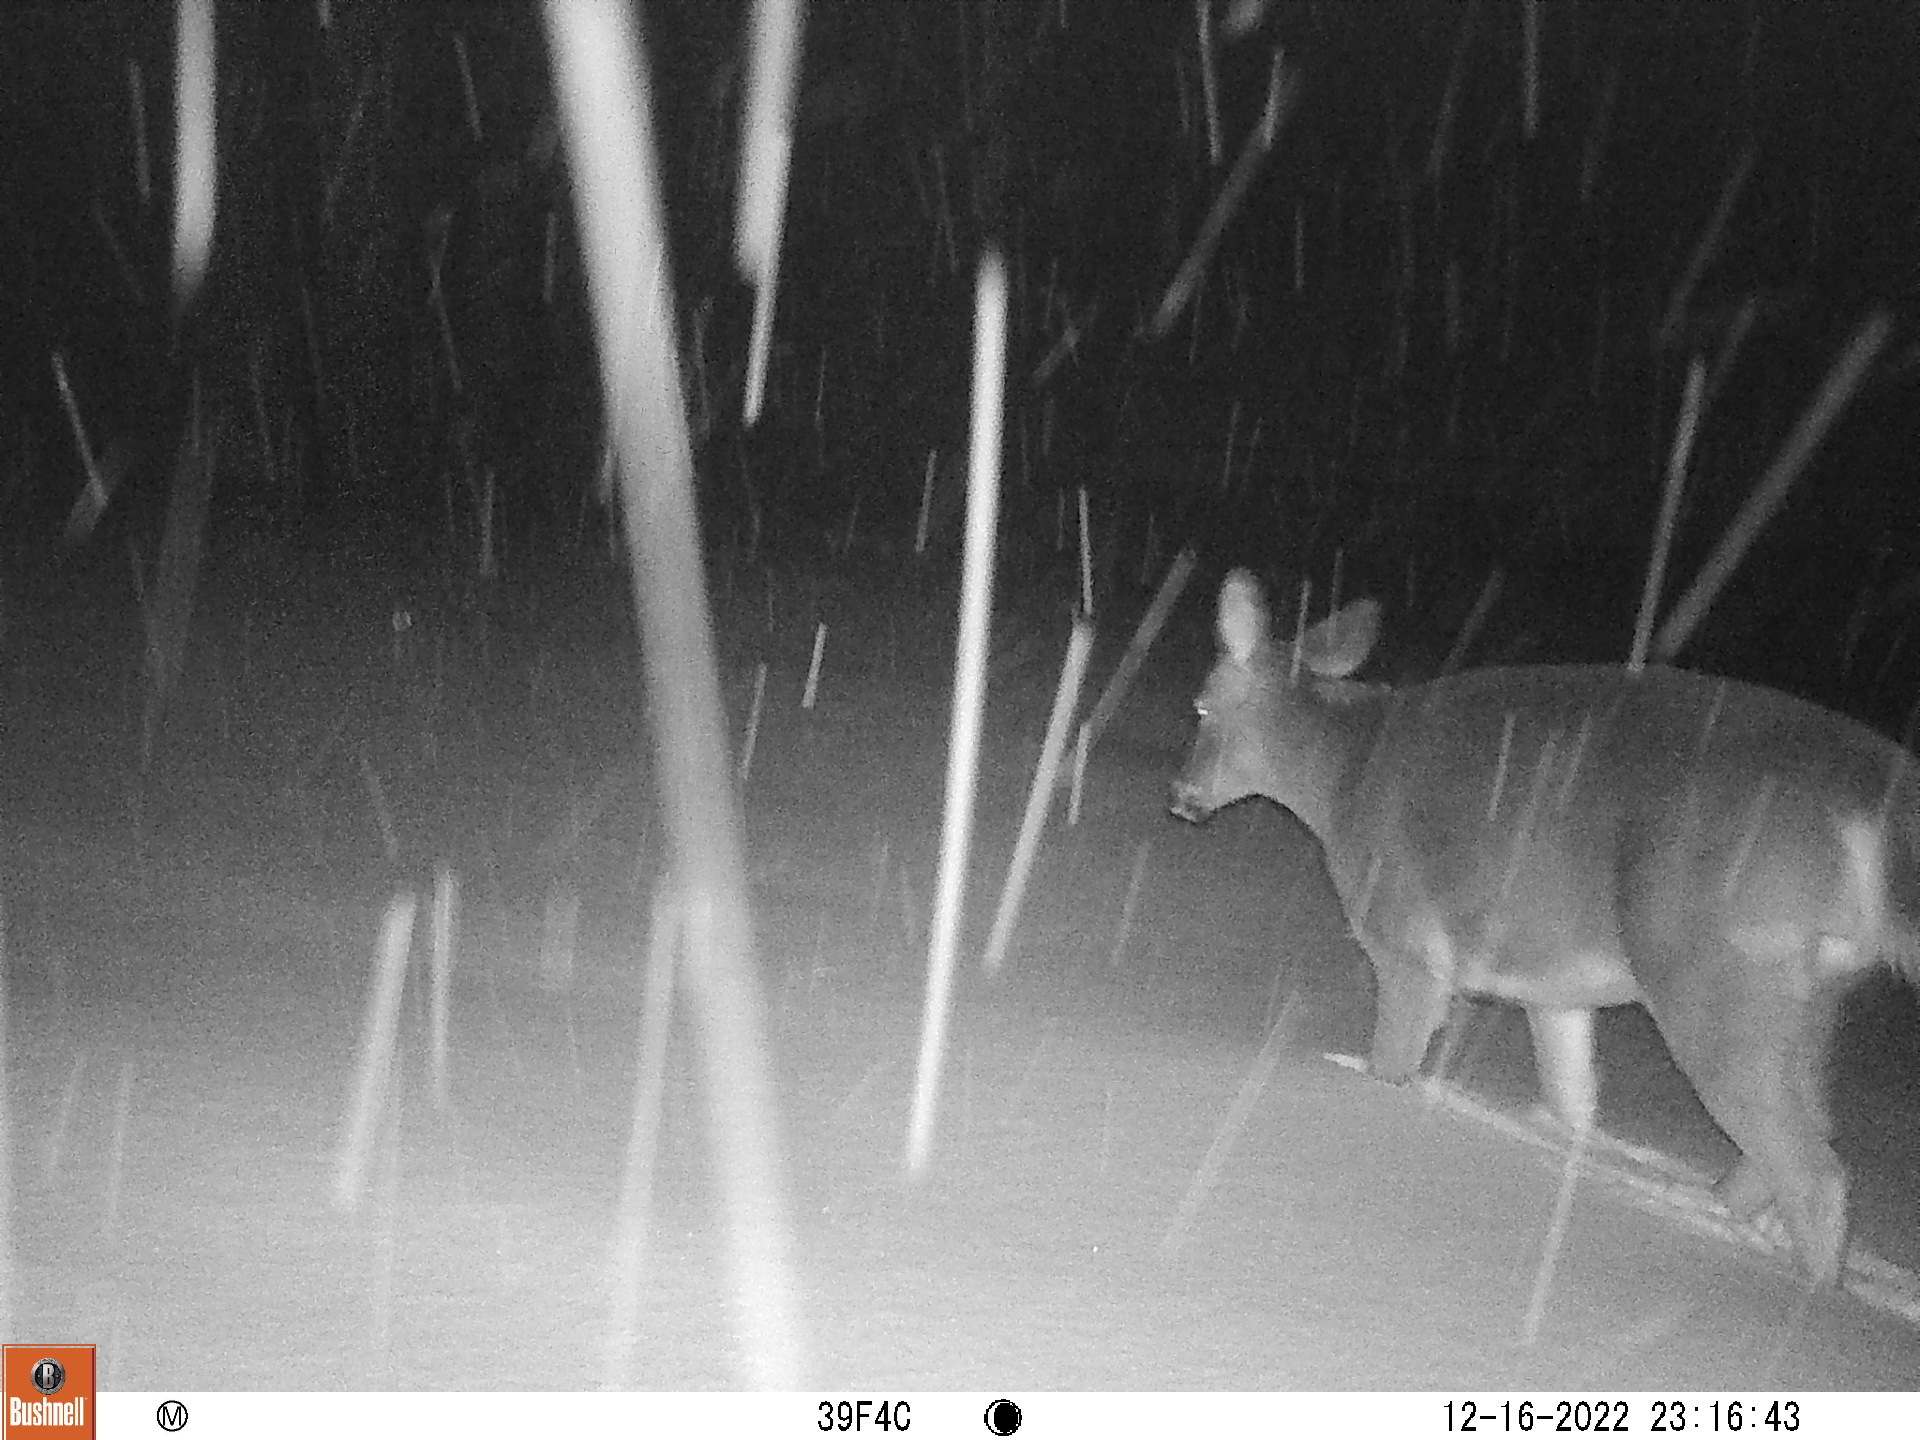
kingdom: Animalia
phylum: Chordata
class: Mammalia
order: Artiodactyla
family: Cervidae
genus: Odocoileus
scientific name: Odocoileus virginianus
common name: White-tailed deer
